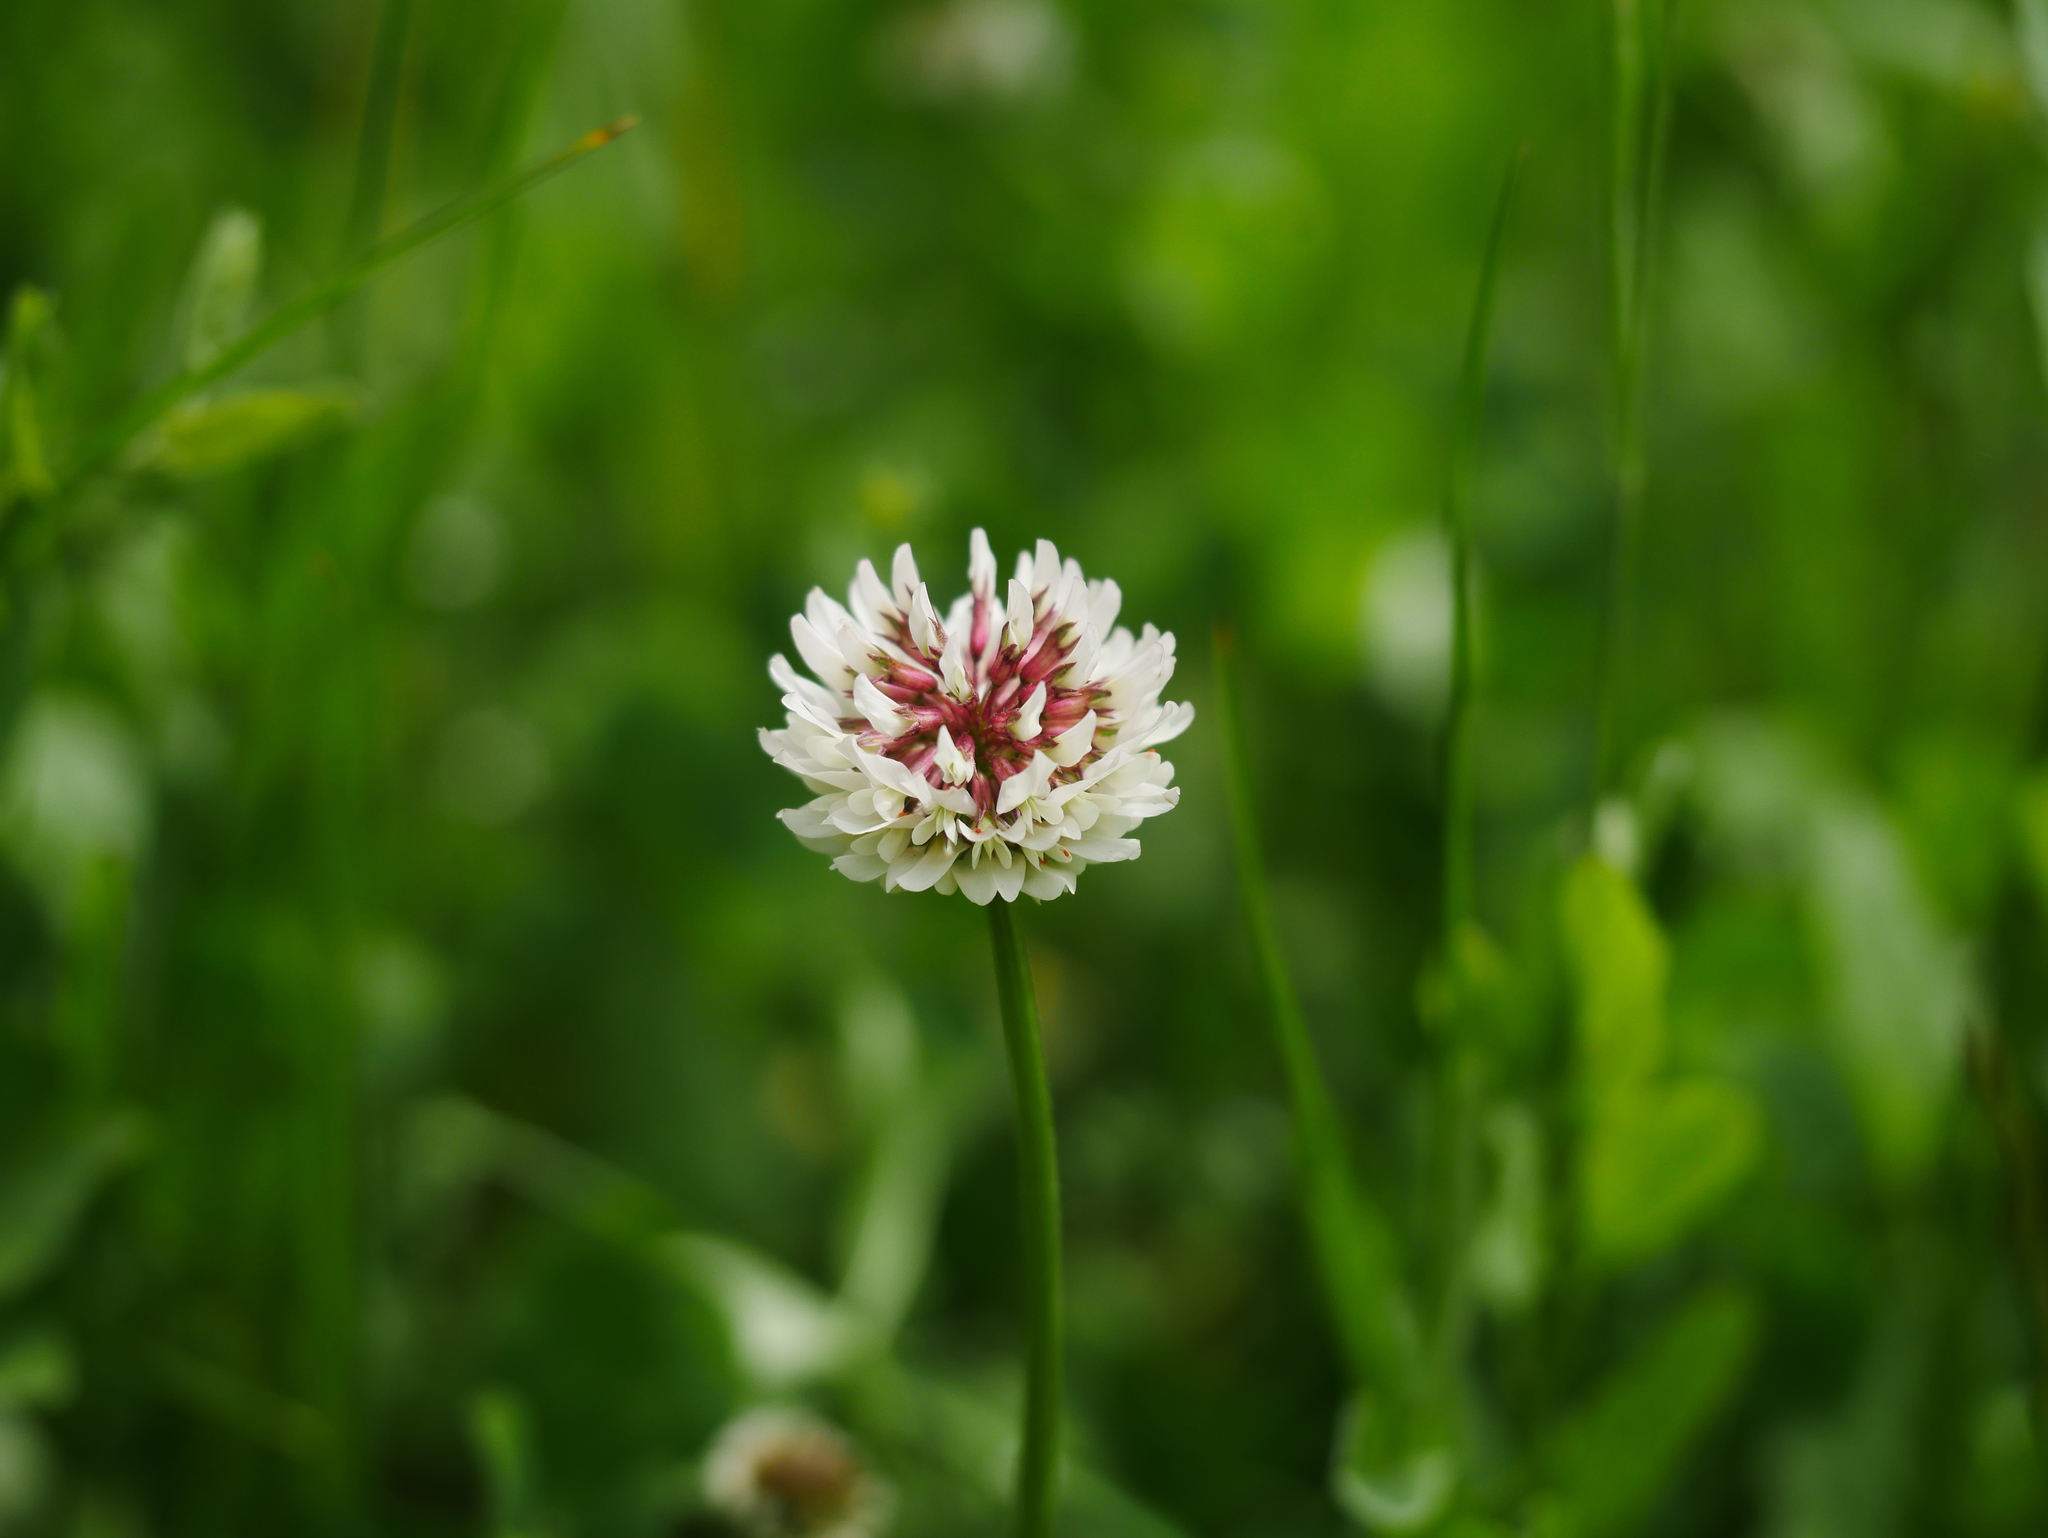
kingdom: Plantae
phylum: Tracheophyta
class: Magnoliopsida
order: Fabales
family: Fabaceae
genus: Trifolium
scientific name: Trifolium repens
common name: White clover
